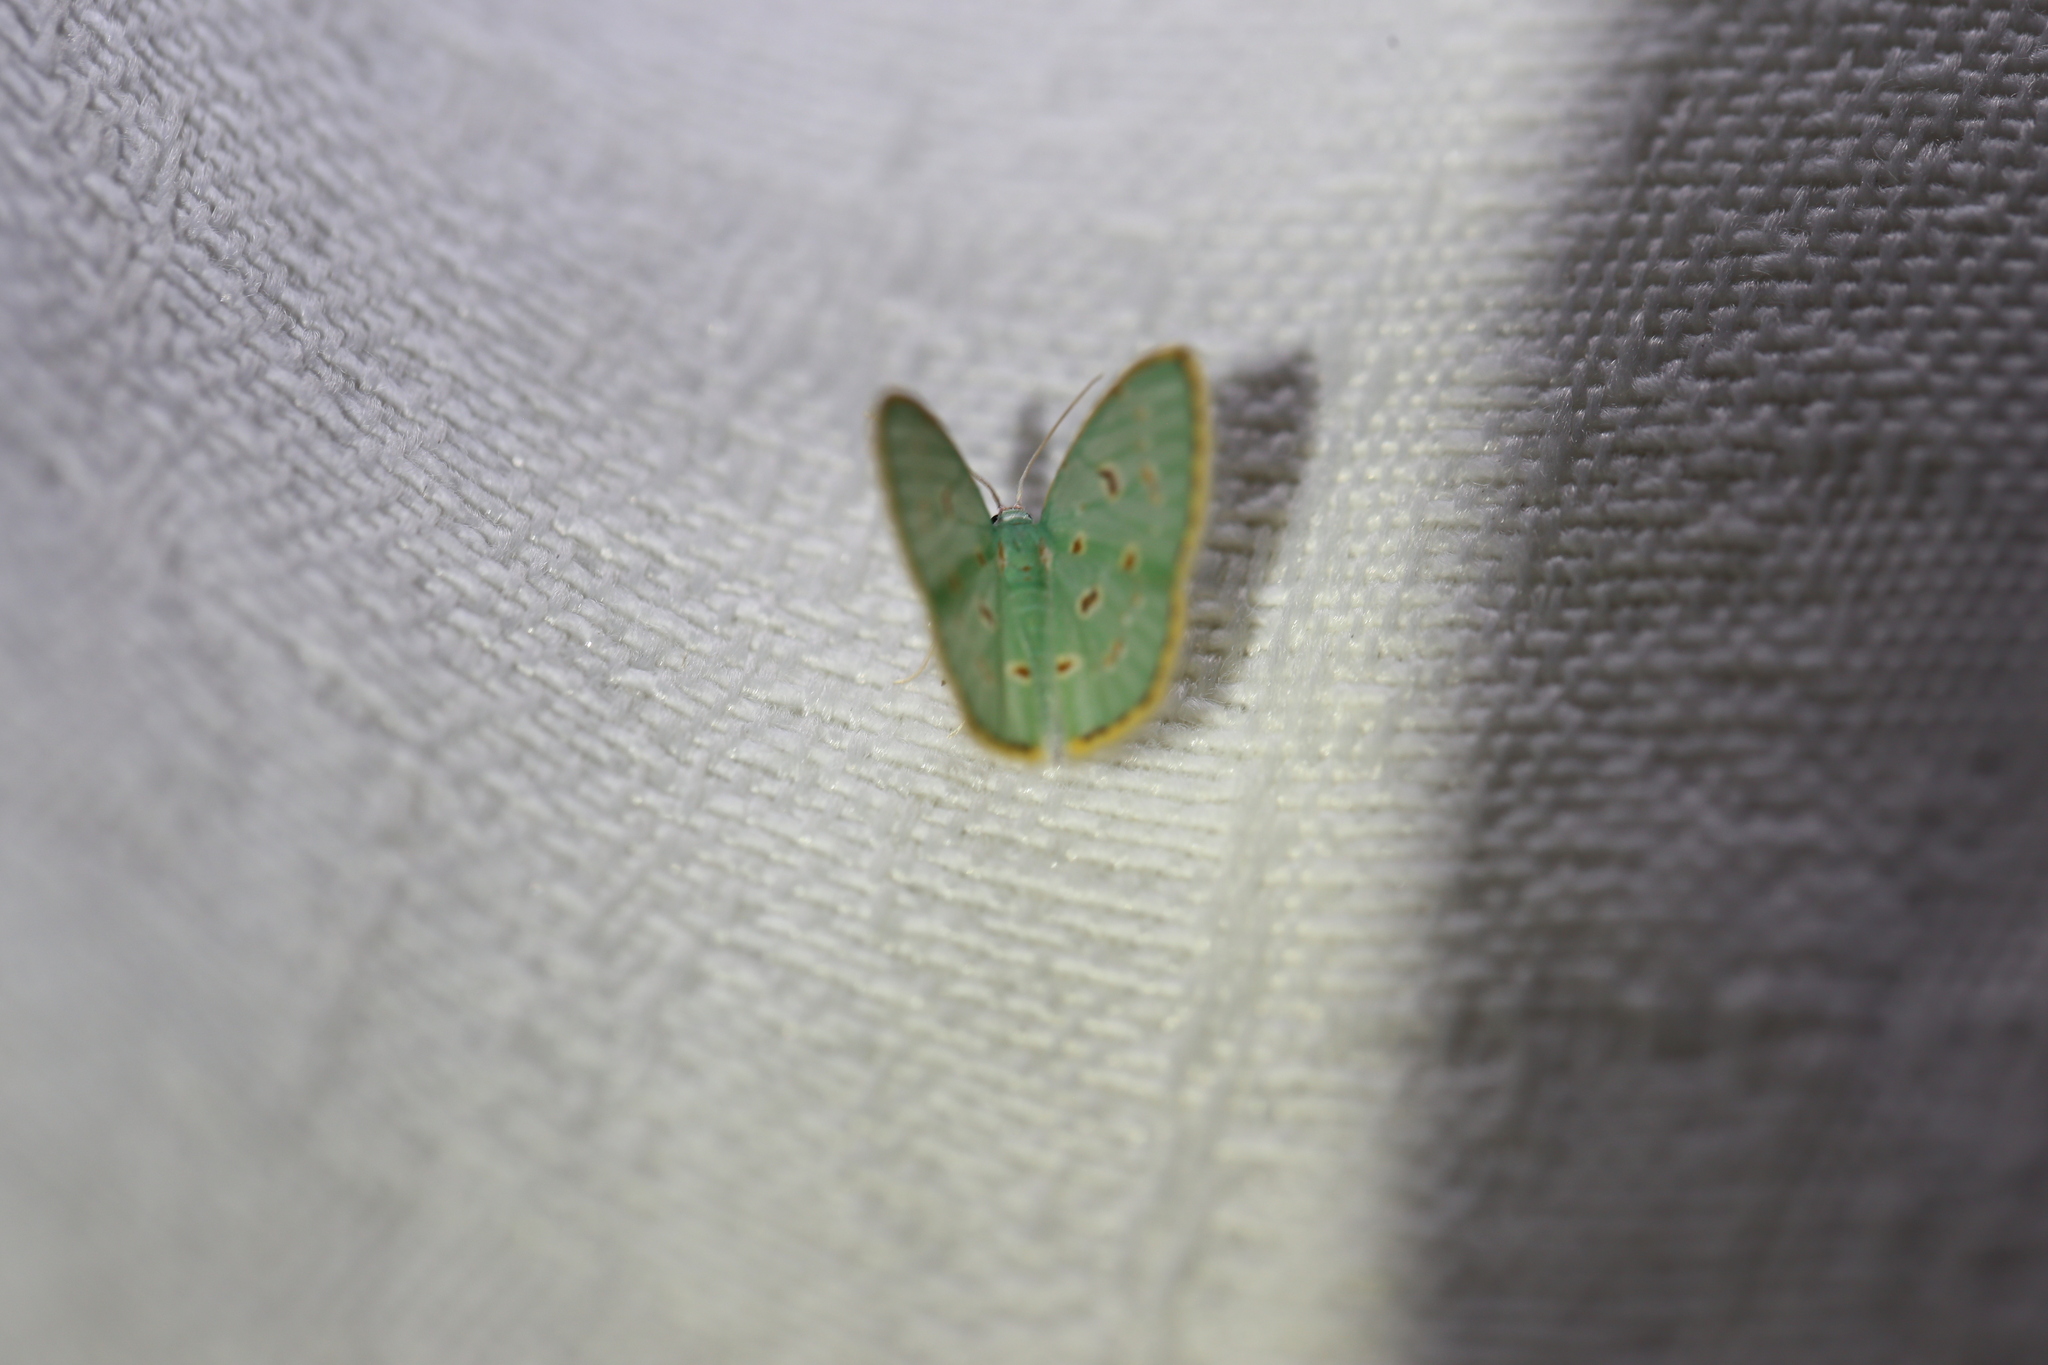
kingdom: Animalia
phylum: Arthropoda
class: Insecta
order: Lepidoptera
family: Geometridae
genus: Comostola
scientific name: Comostola laesaria
